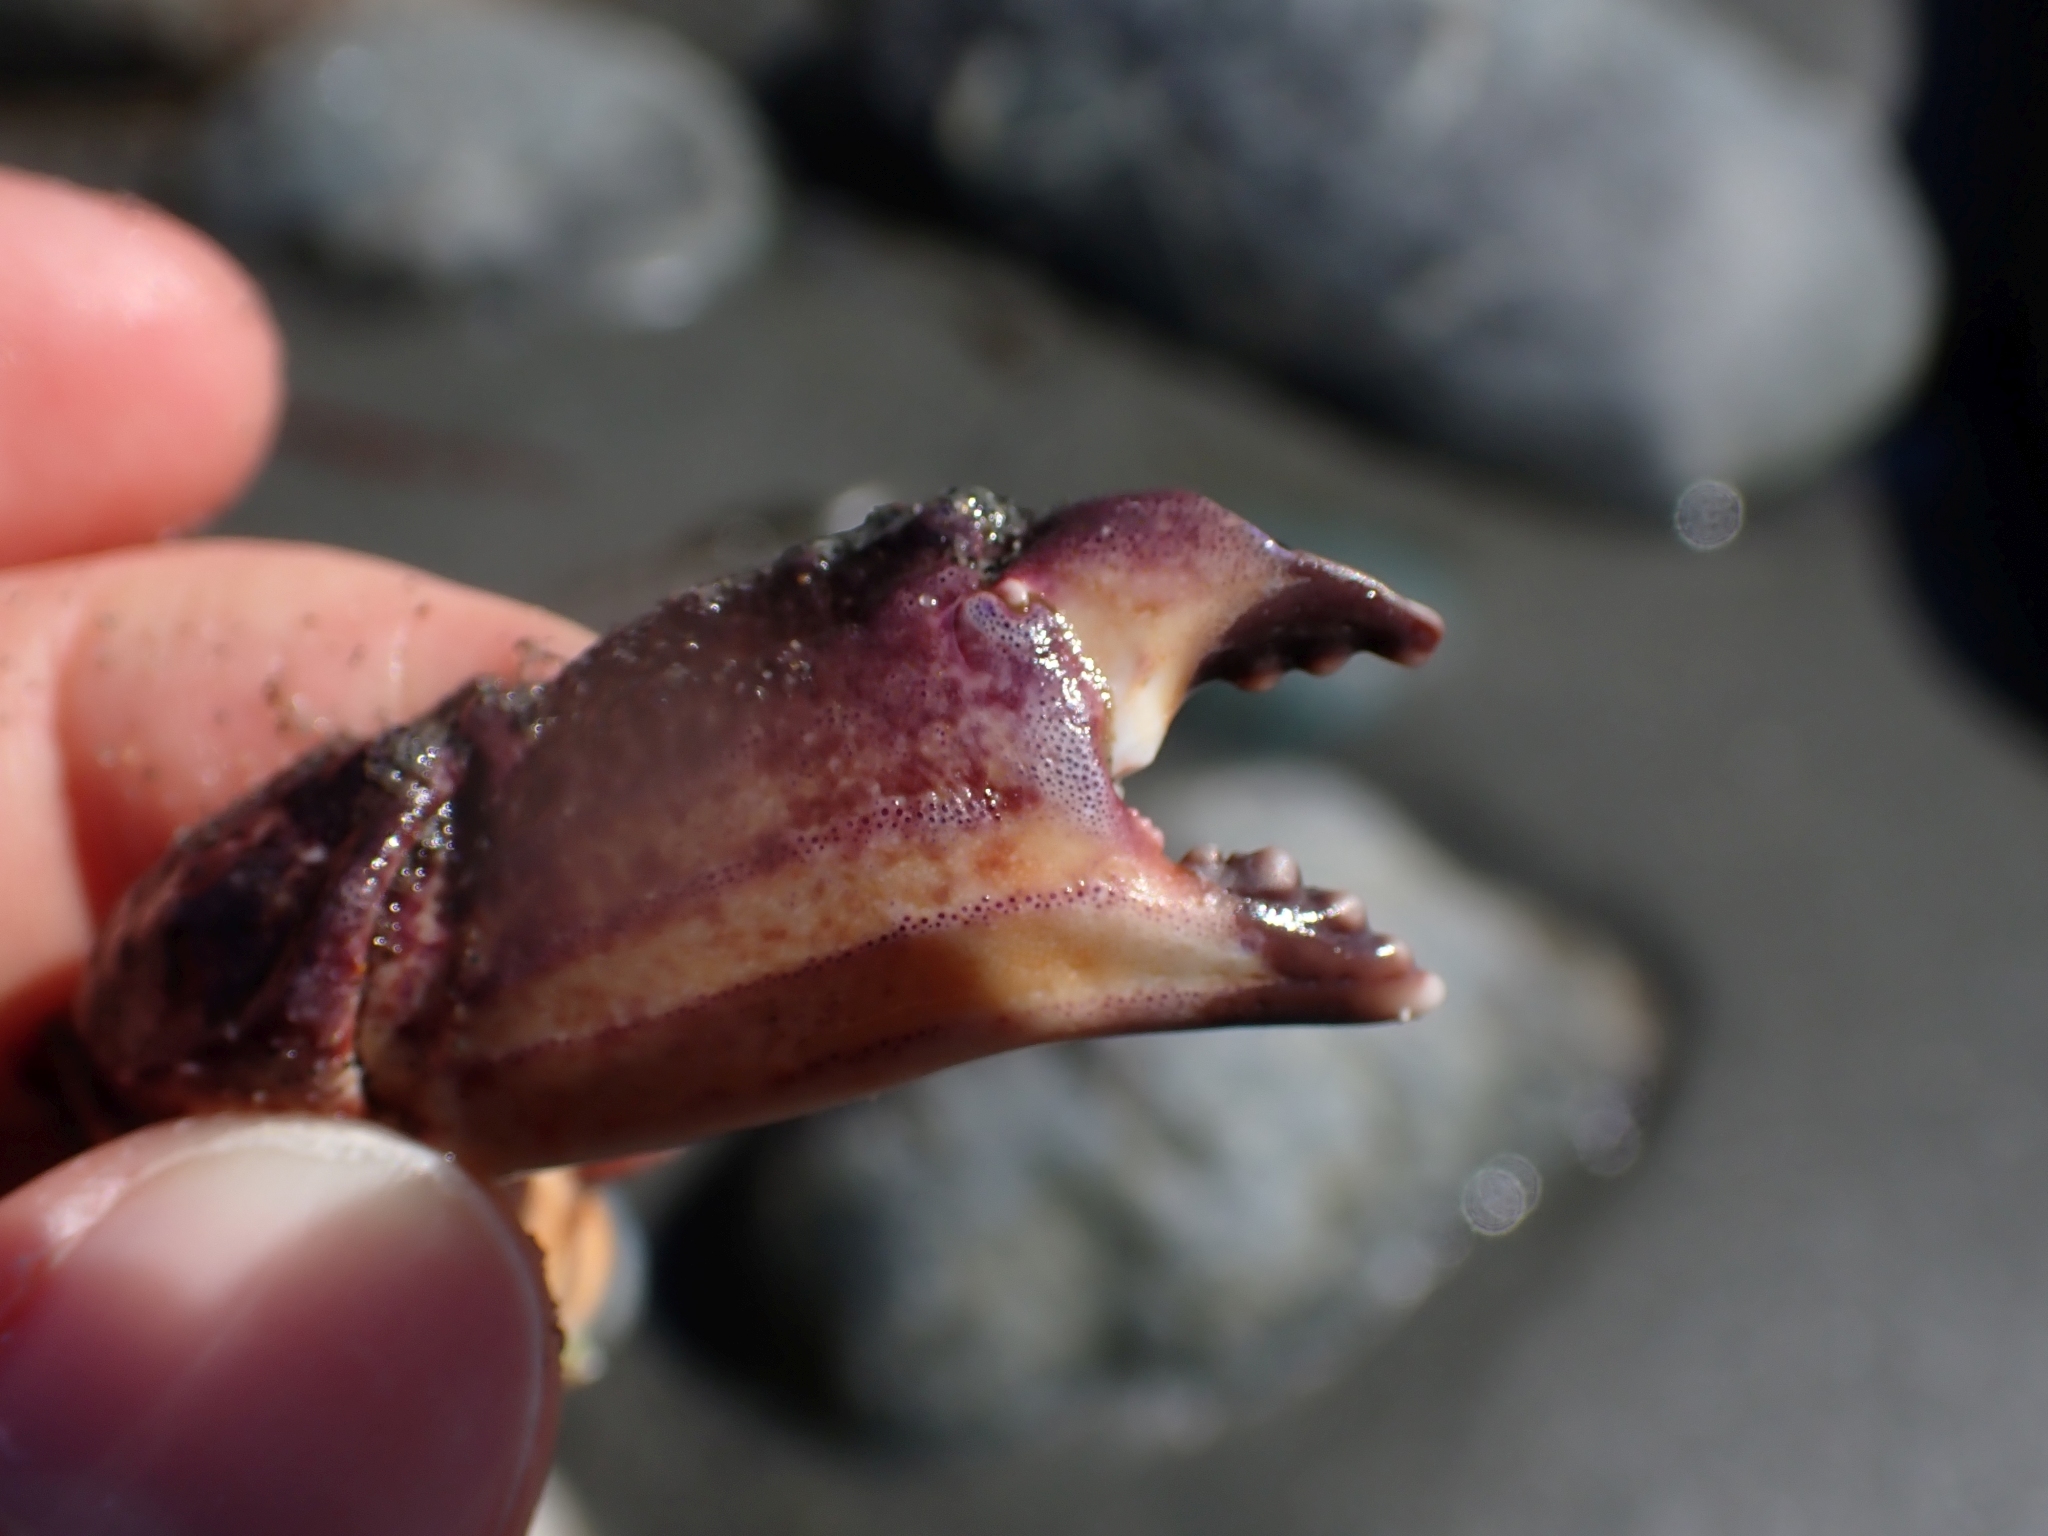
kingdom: Animalia
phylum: Arthropoda
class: Malacostraca
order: Decapoda
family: Cancridae
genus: Cancer
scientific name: Cancer productus
